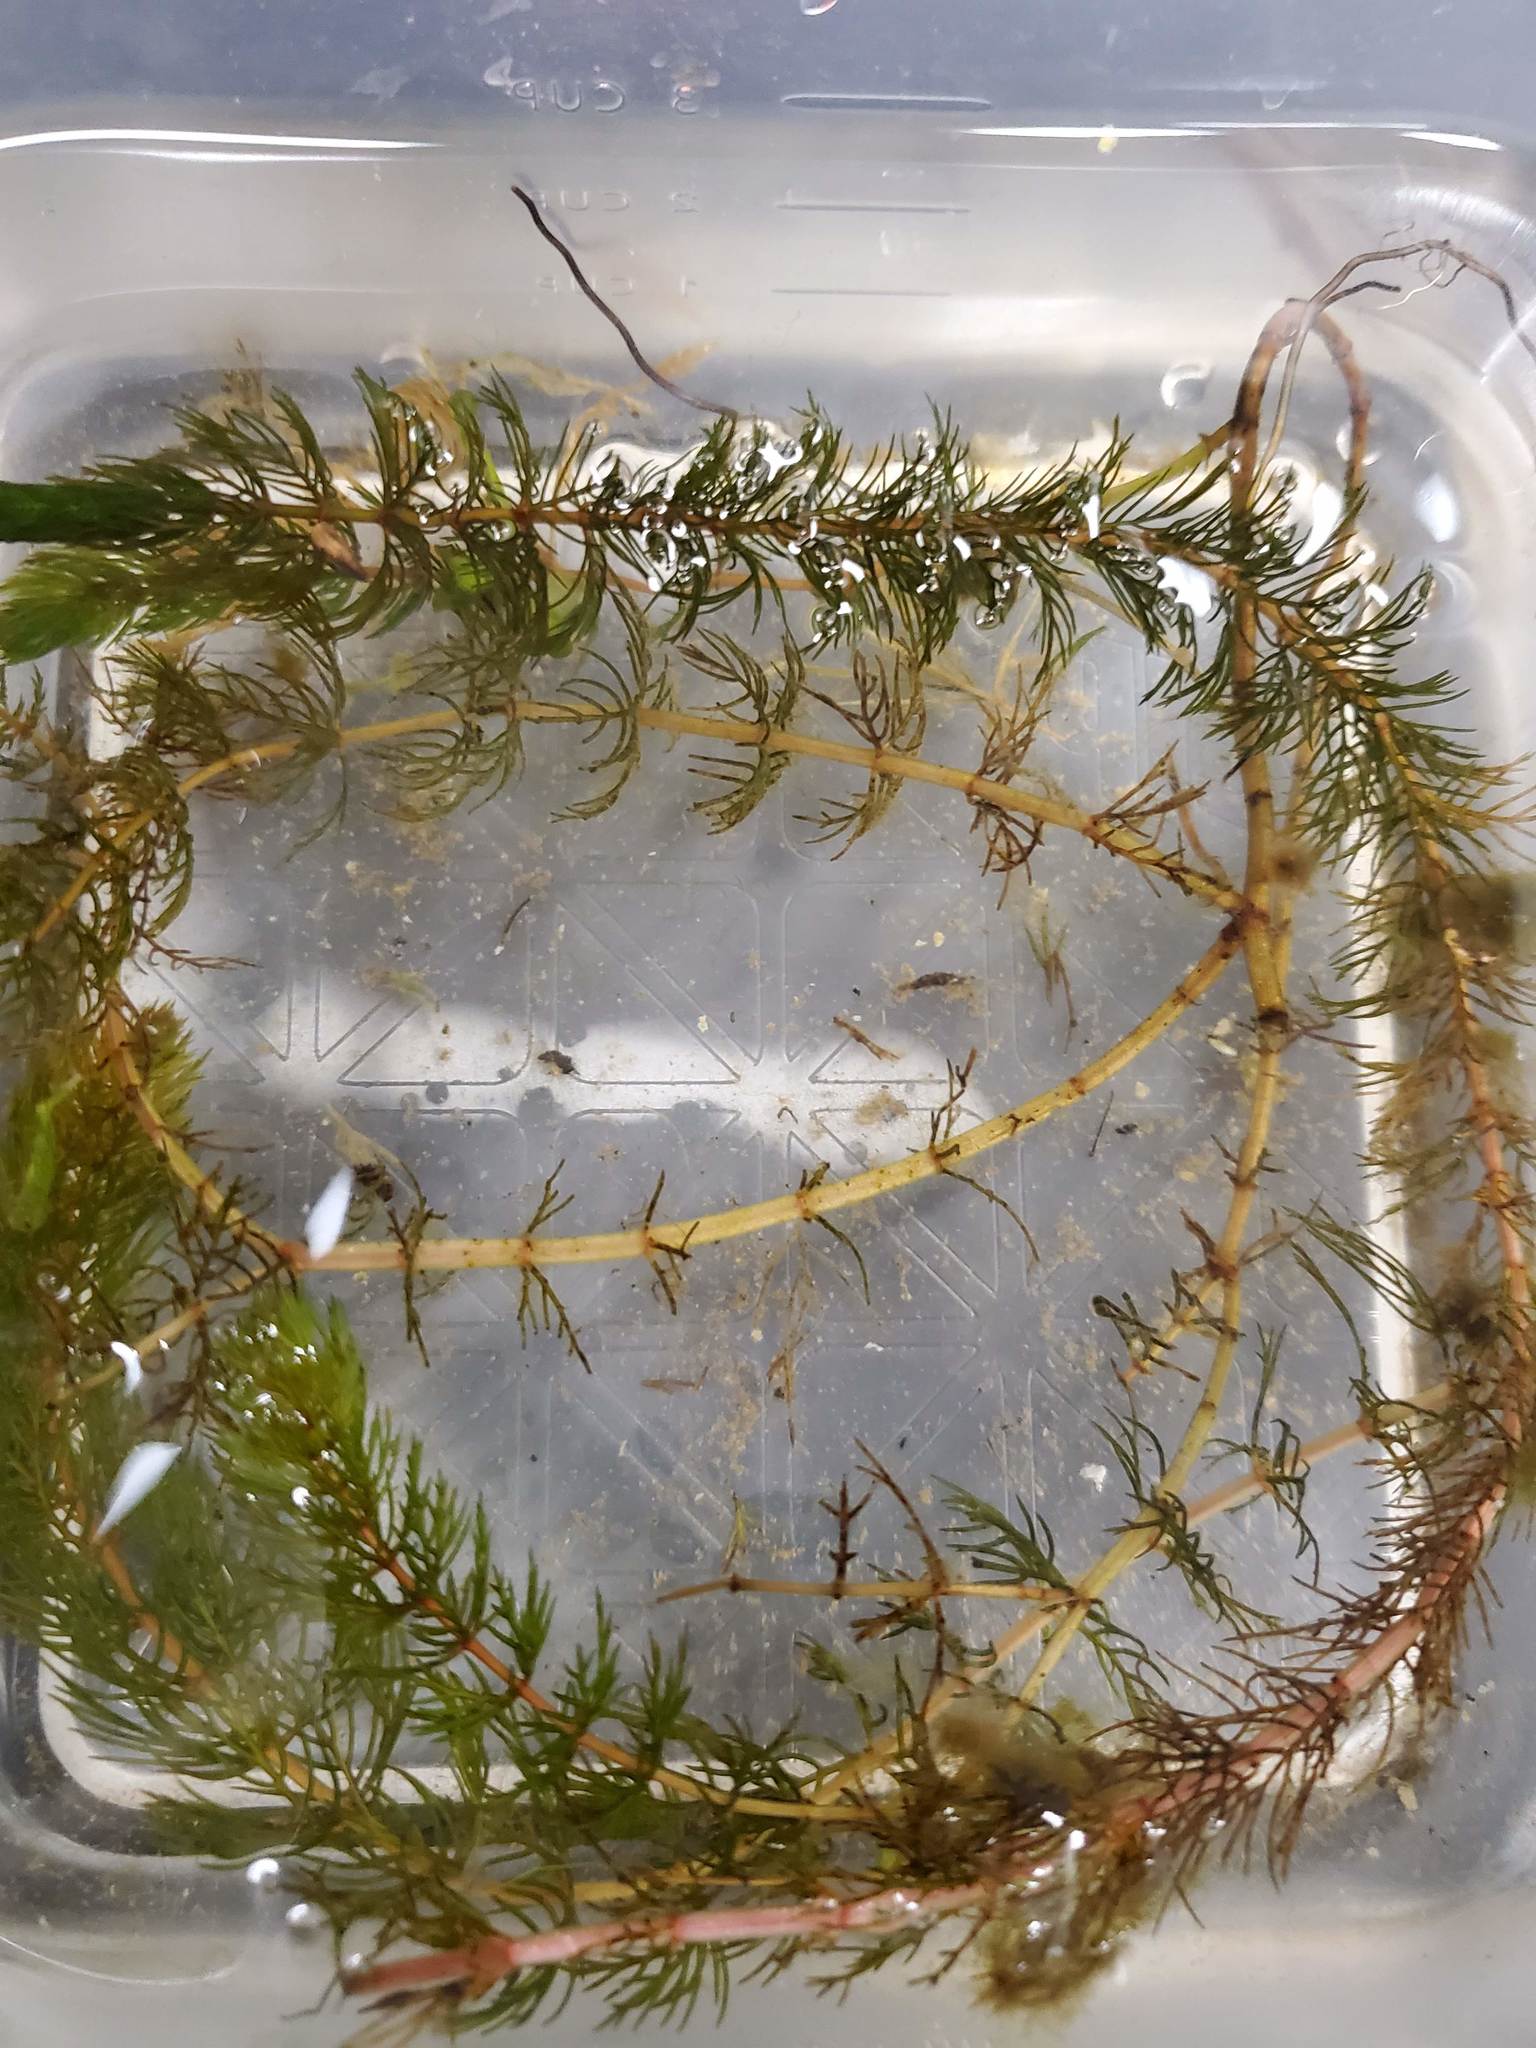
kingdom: Plantae
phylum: Tracheophyta
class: Magnoliopsida
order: Saxifragales
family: Haloragaceae
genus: Myriophyllum
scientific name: Myriophyllum sibiricum
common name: Siberian water-milfoil
